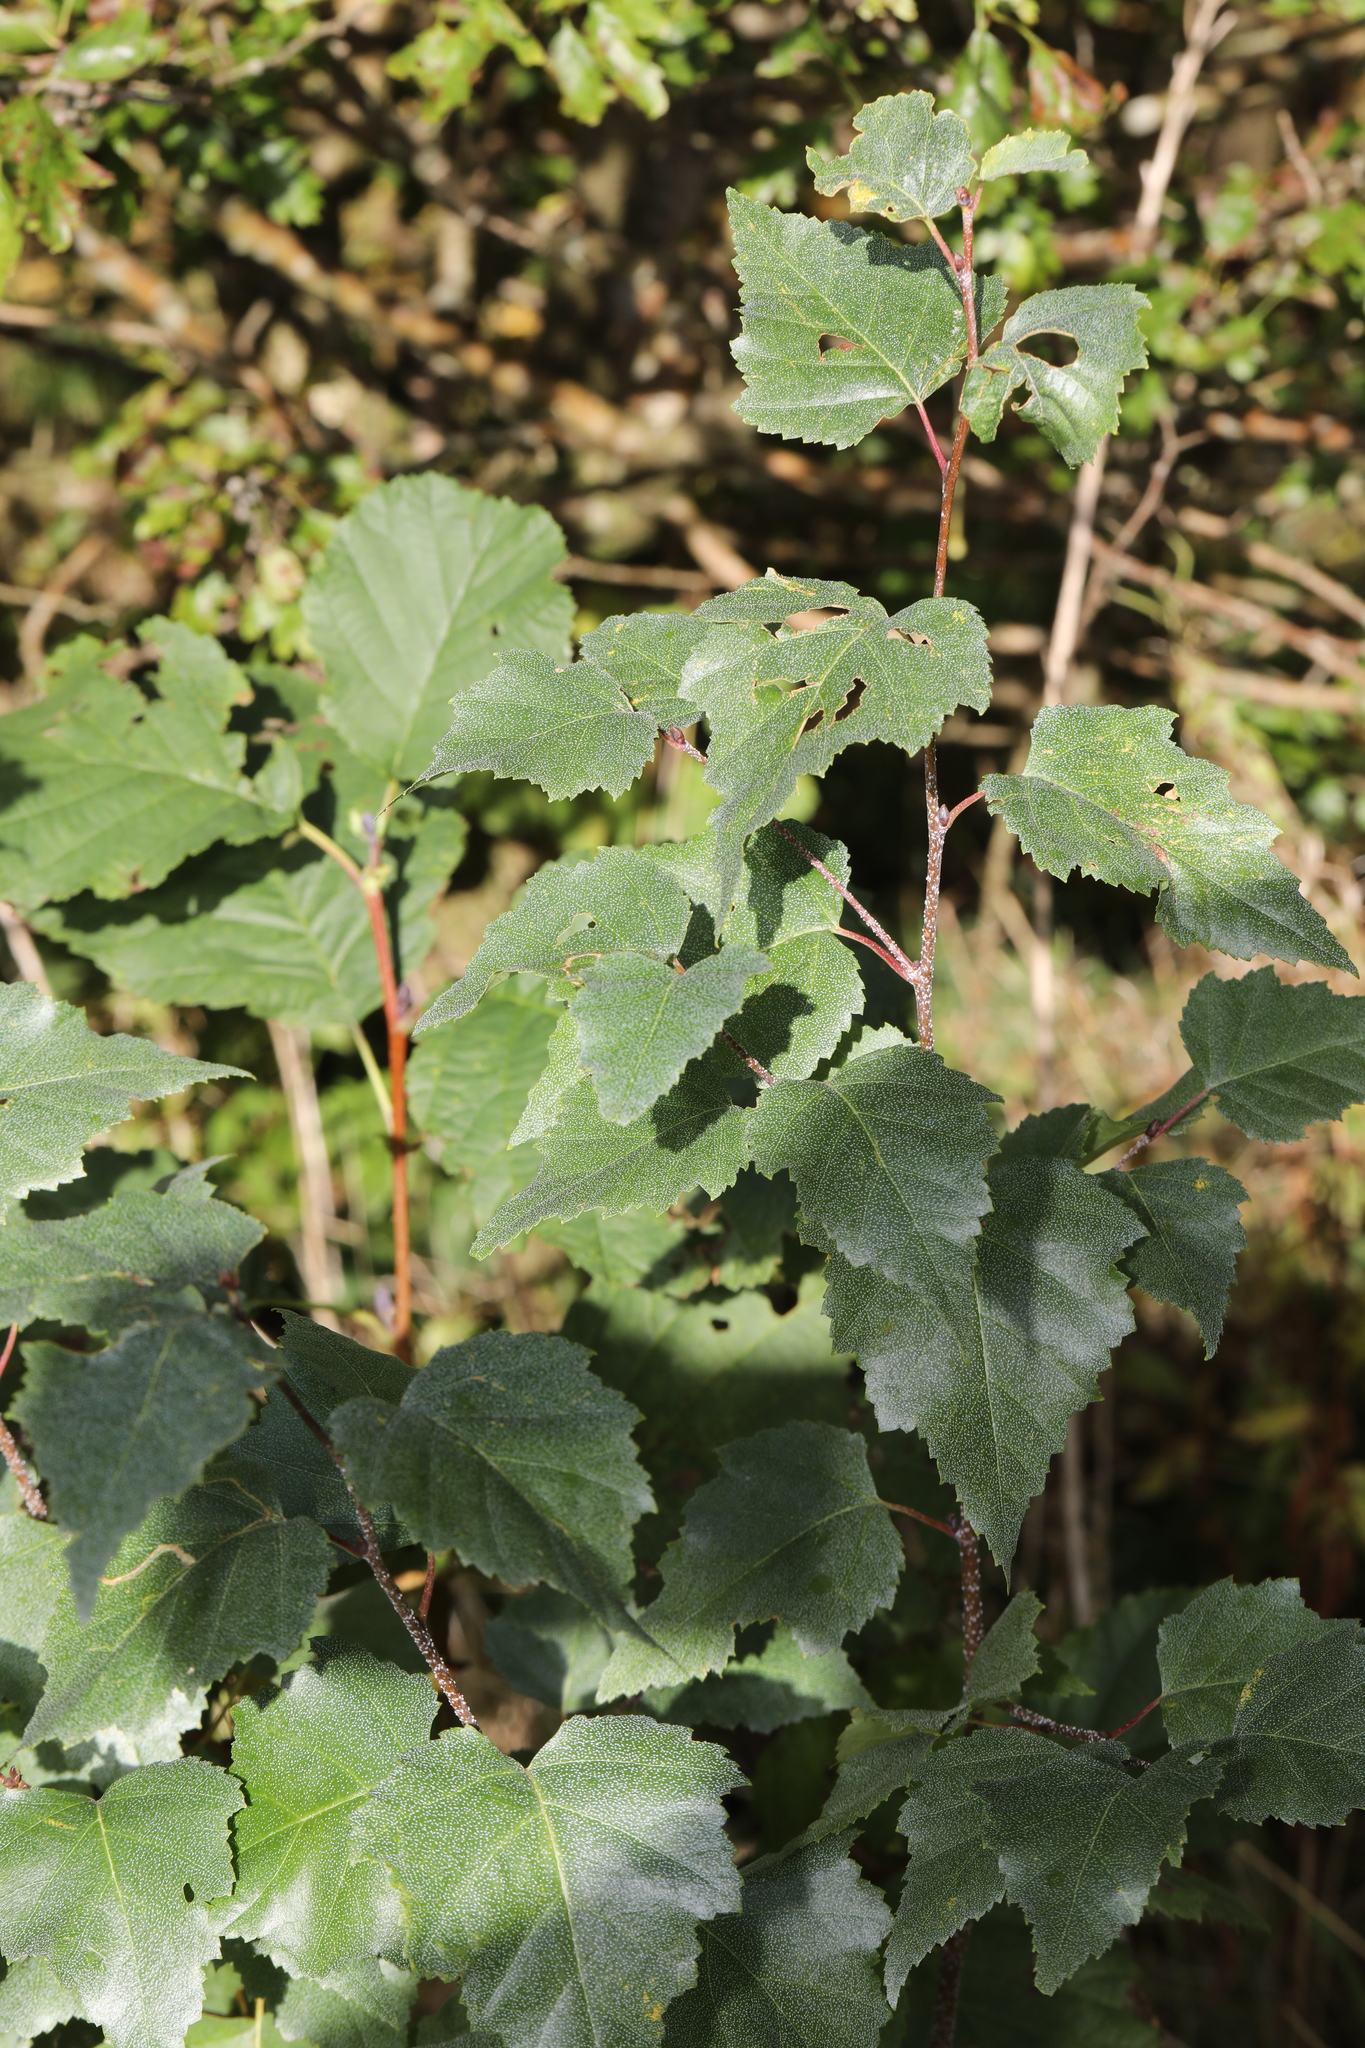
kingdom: Plantae
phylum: Tracheophyta
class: Magnoliopsida
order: Fagales
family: Betulaceae
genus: Betula
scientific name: Betula pendula
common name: Silver birch
